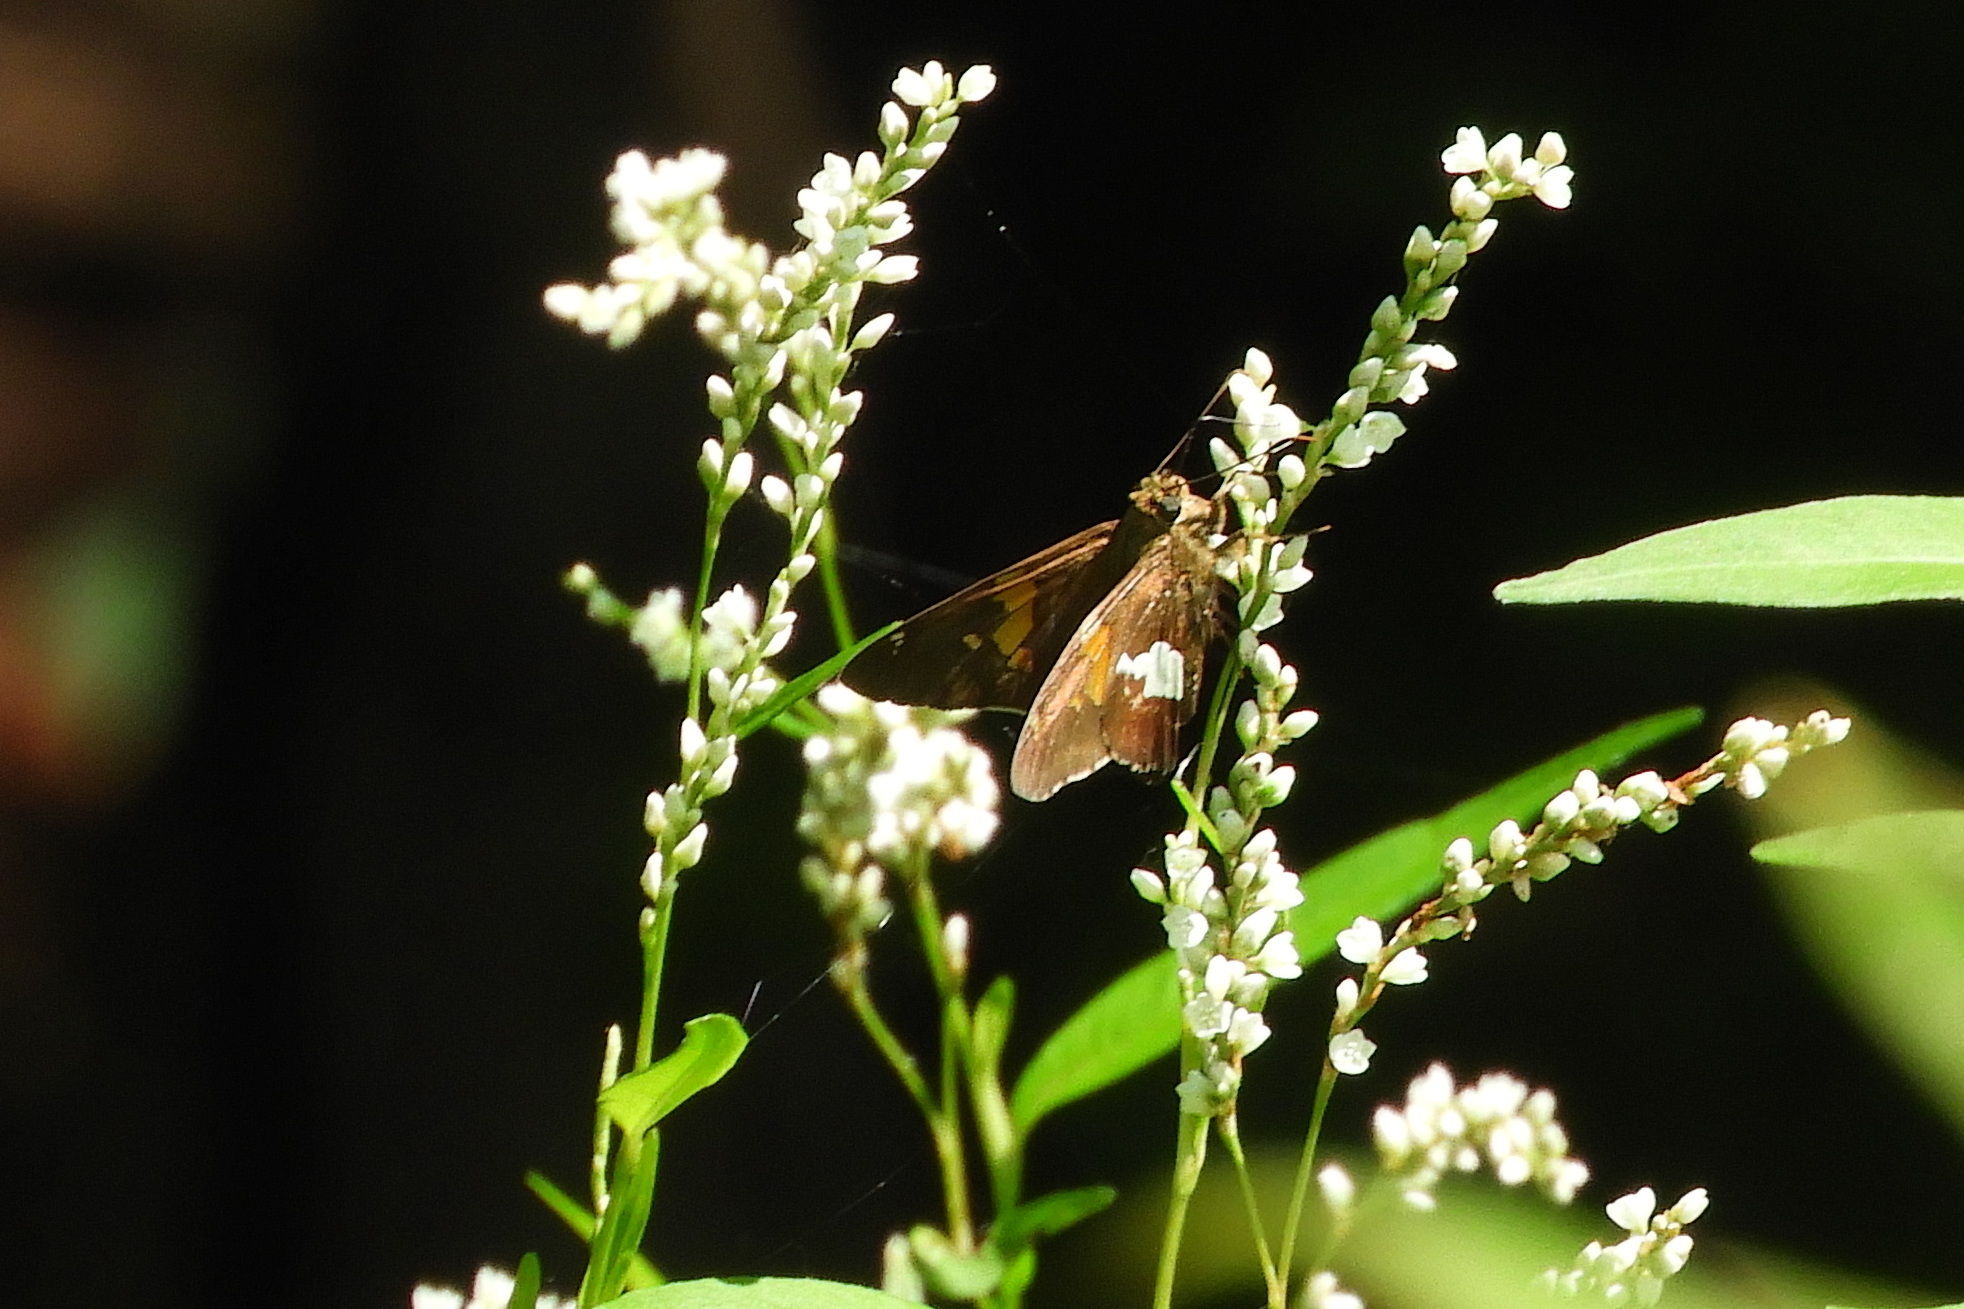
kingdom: Animalia
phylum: Arthropoda
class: Insecta
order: Lepidoptera
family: Hesperiidae
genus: Epargyreus
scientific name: Epargyreus clarus
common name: Silver-spotted skipper
